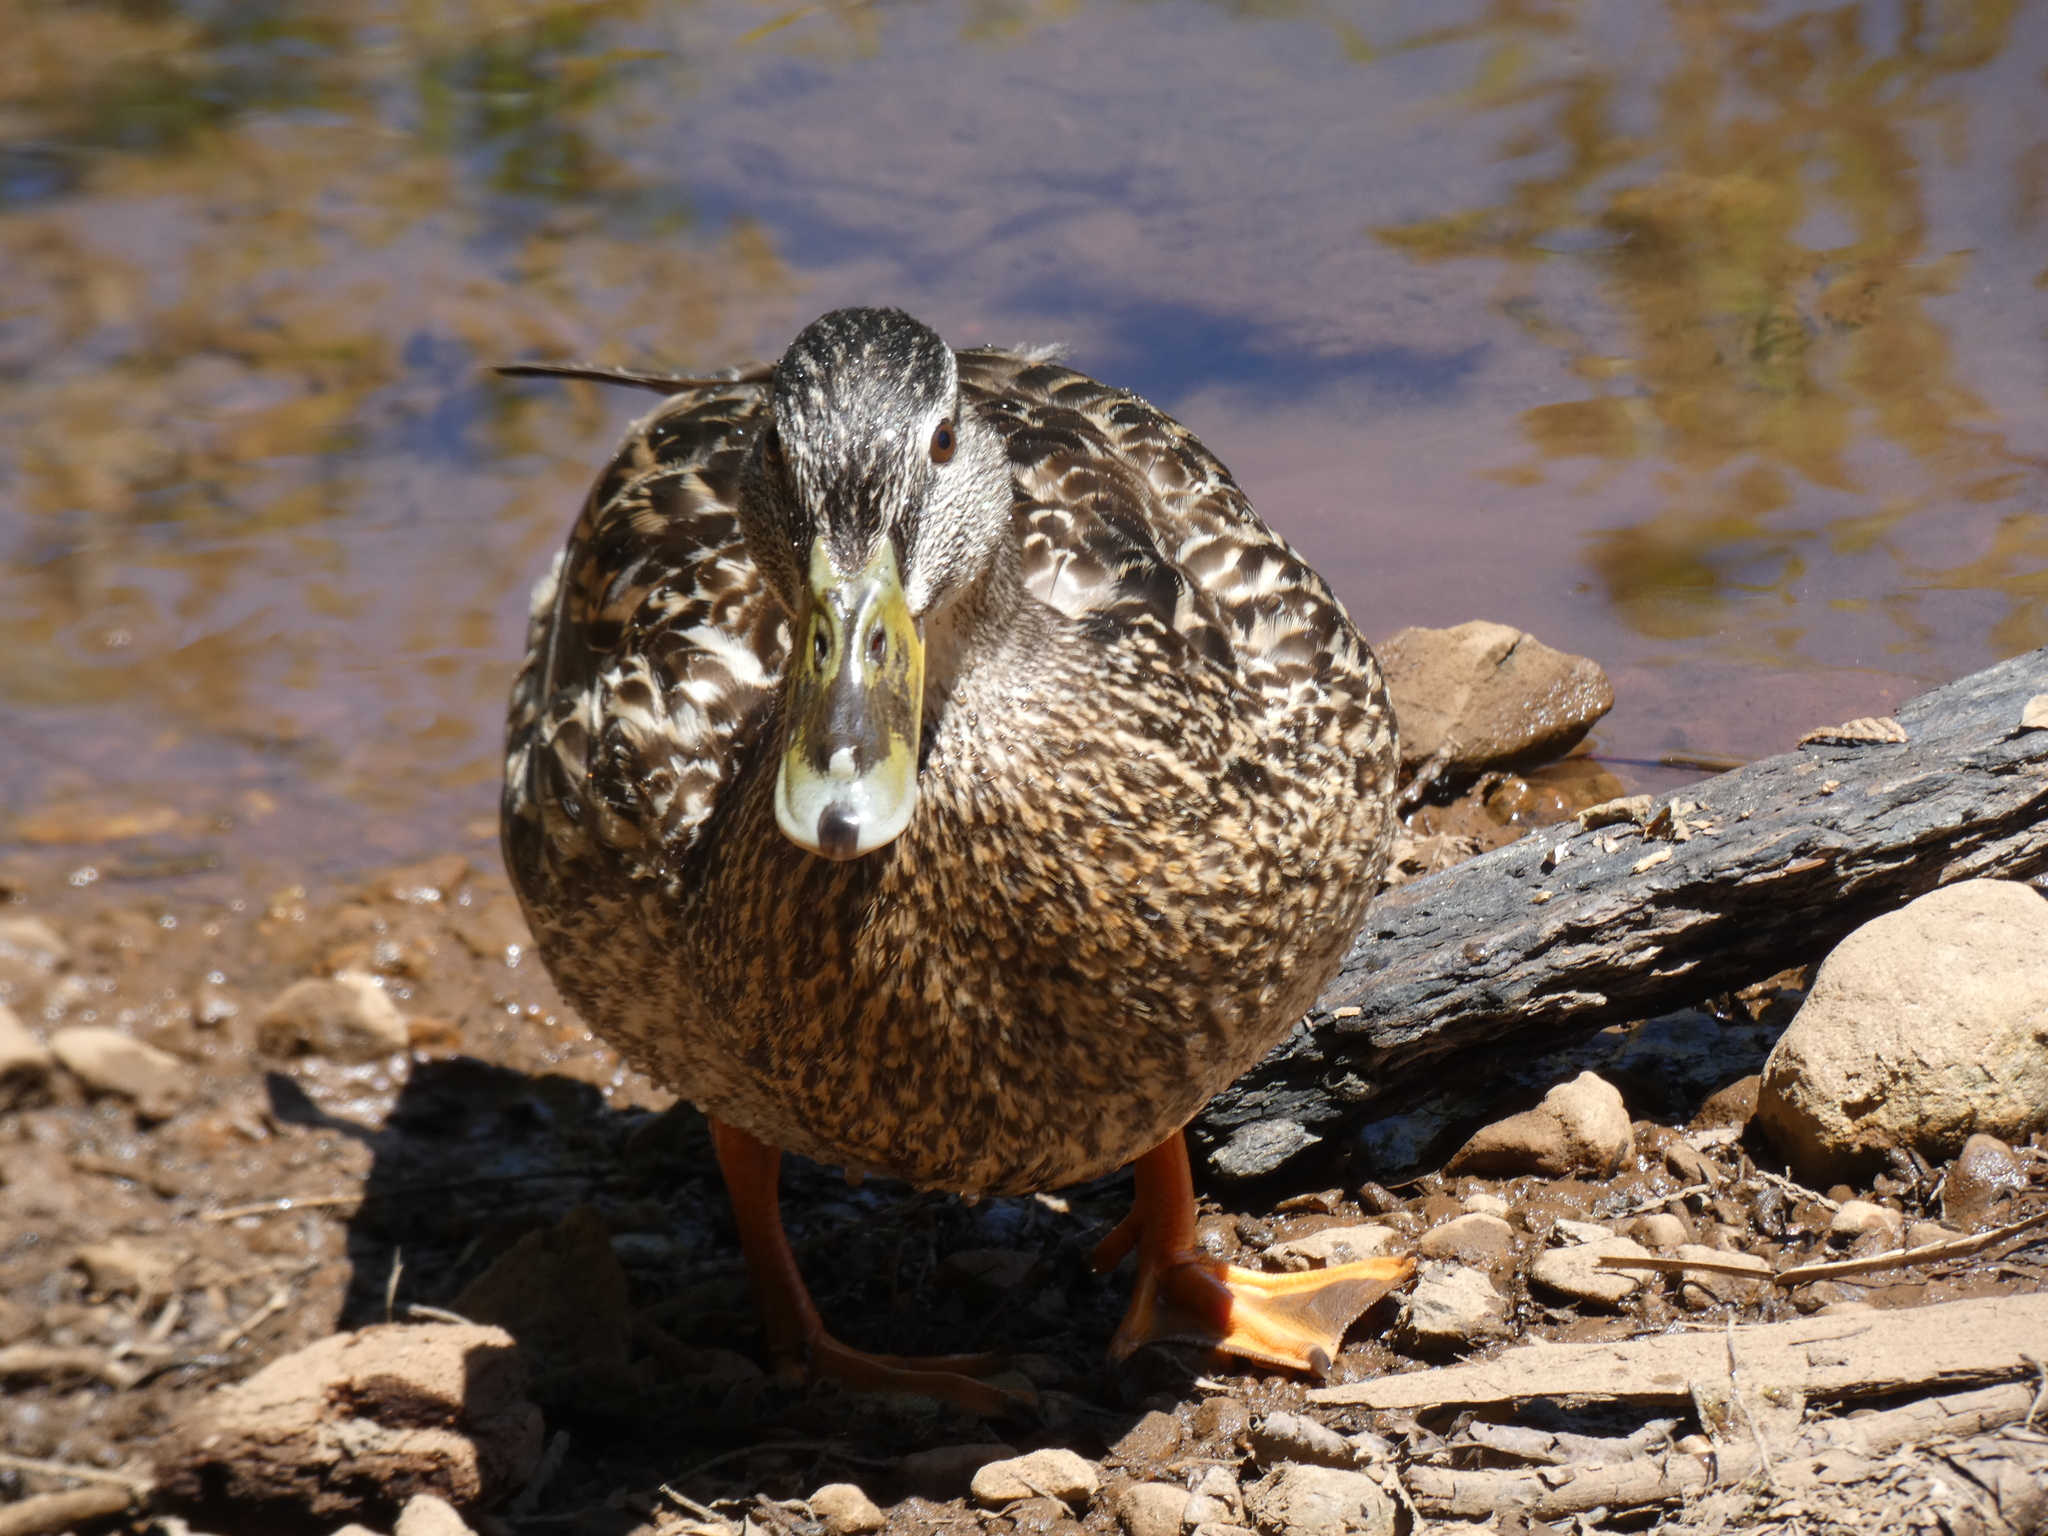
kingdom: Animalia
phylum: Chordata
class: Aves
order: Anseriformes
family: Anatidae
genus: Anas
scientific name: Anas platyrhynchos
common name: Mallard
